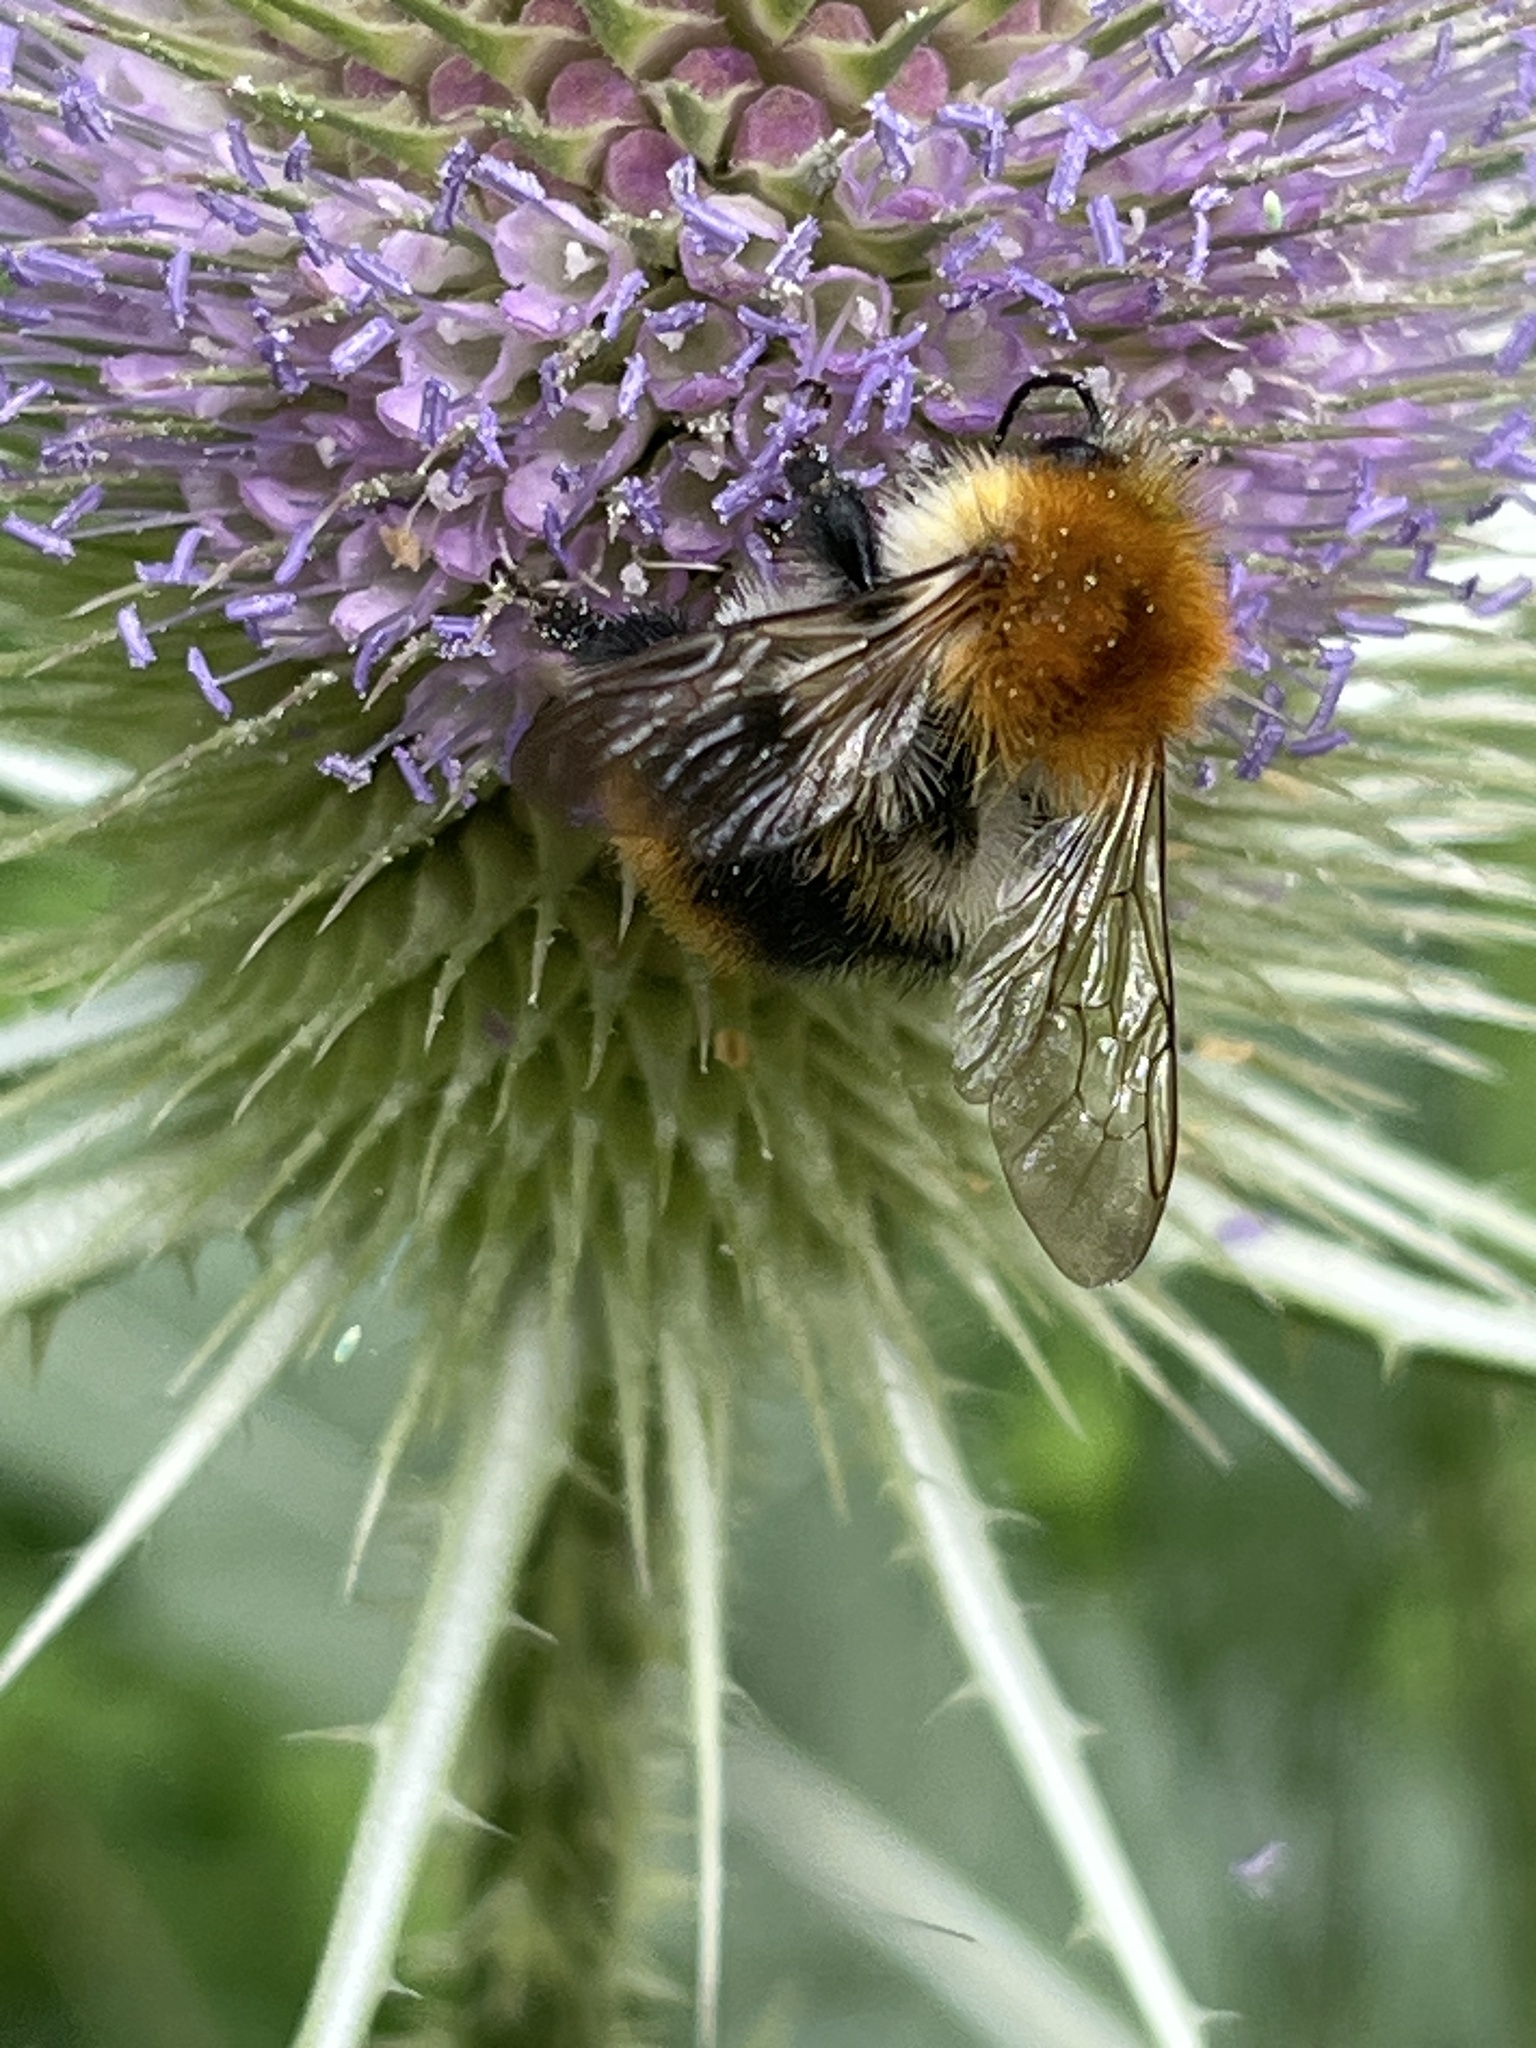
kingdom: Animalia
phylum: Arthropoda
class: Insecta
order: Hymenoptera
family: Apidae
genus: Bombus
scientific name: Bombus pascuorum
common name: Common carder bee
